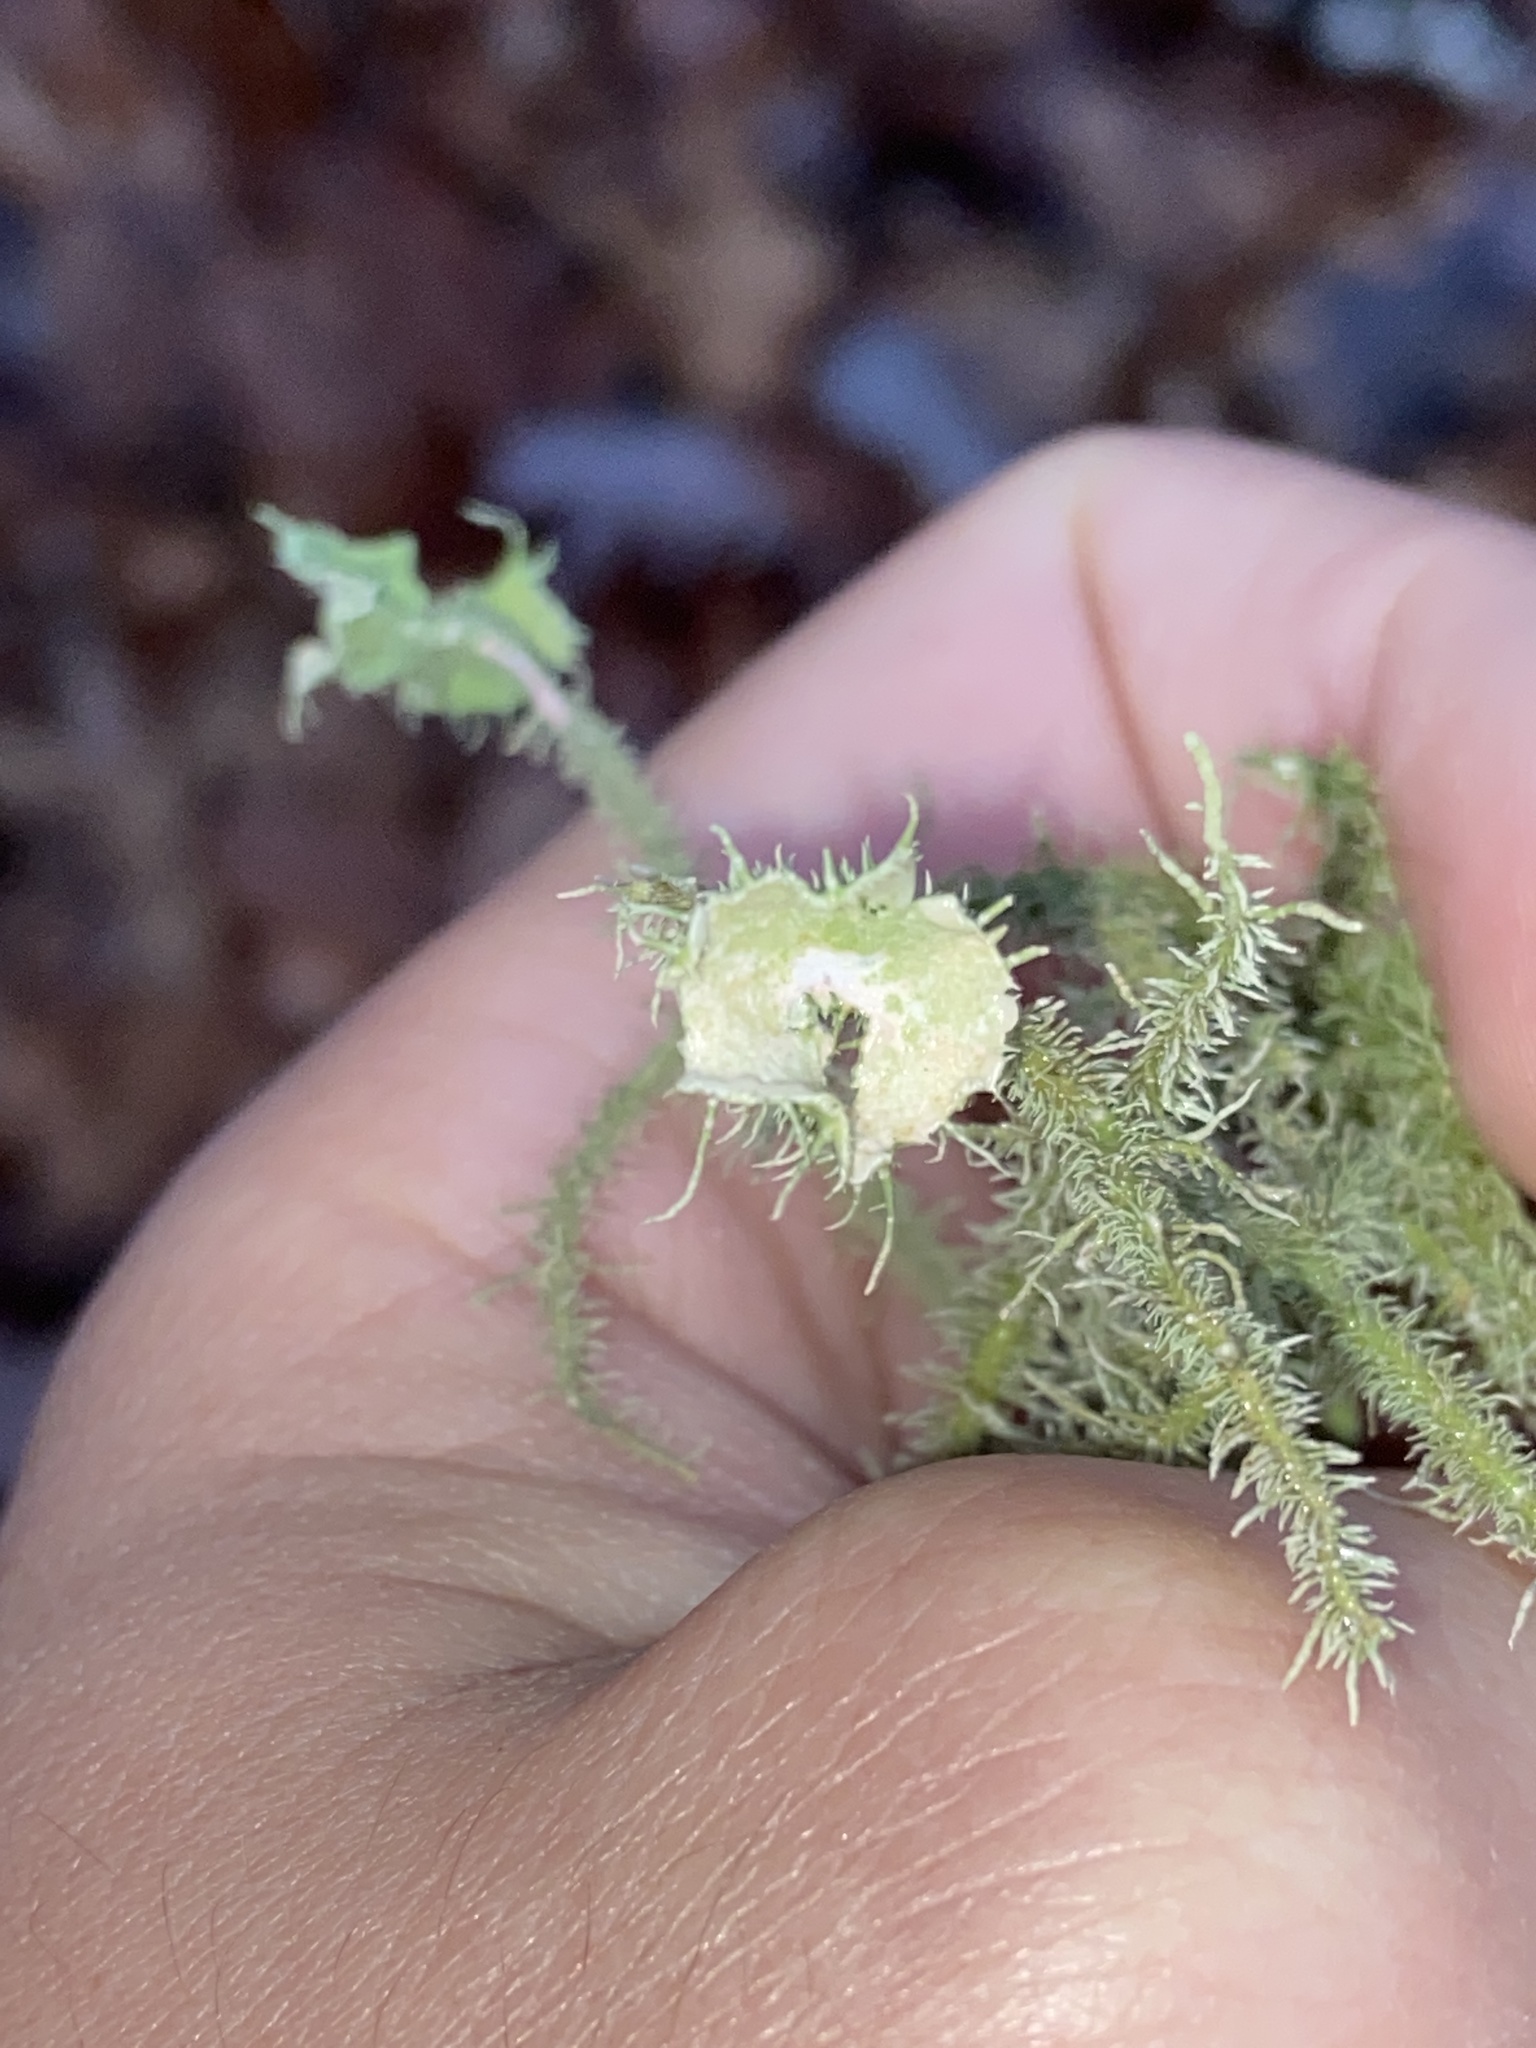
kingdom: Fungi
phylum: Ascomycota
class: Lecanoromycetes
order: Lecanorales
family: Parmeliaceae
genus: Usnea
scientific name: Usnea strigosa
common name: Bushy beard lichen
